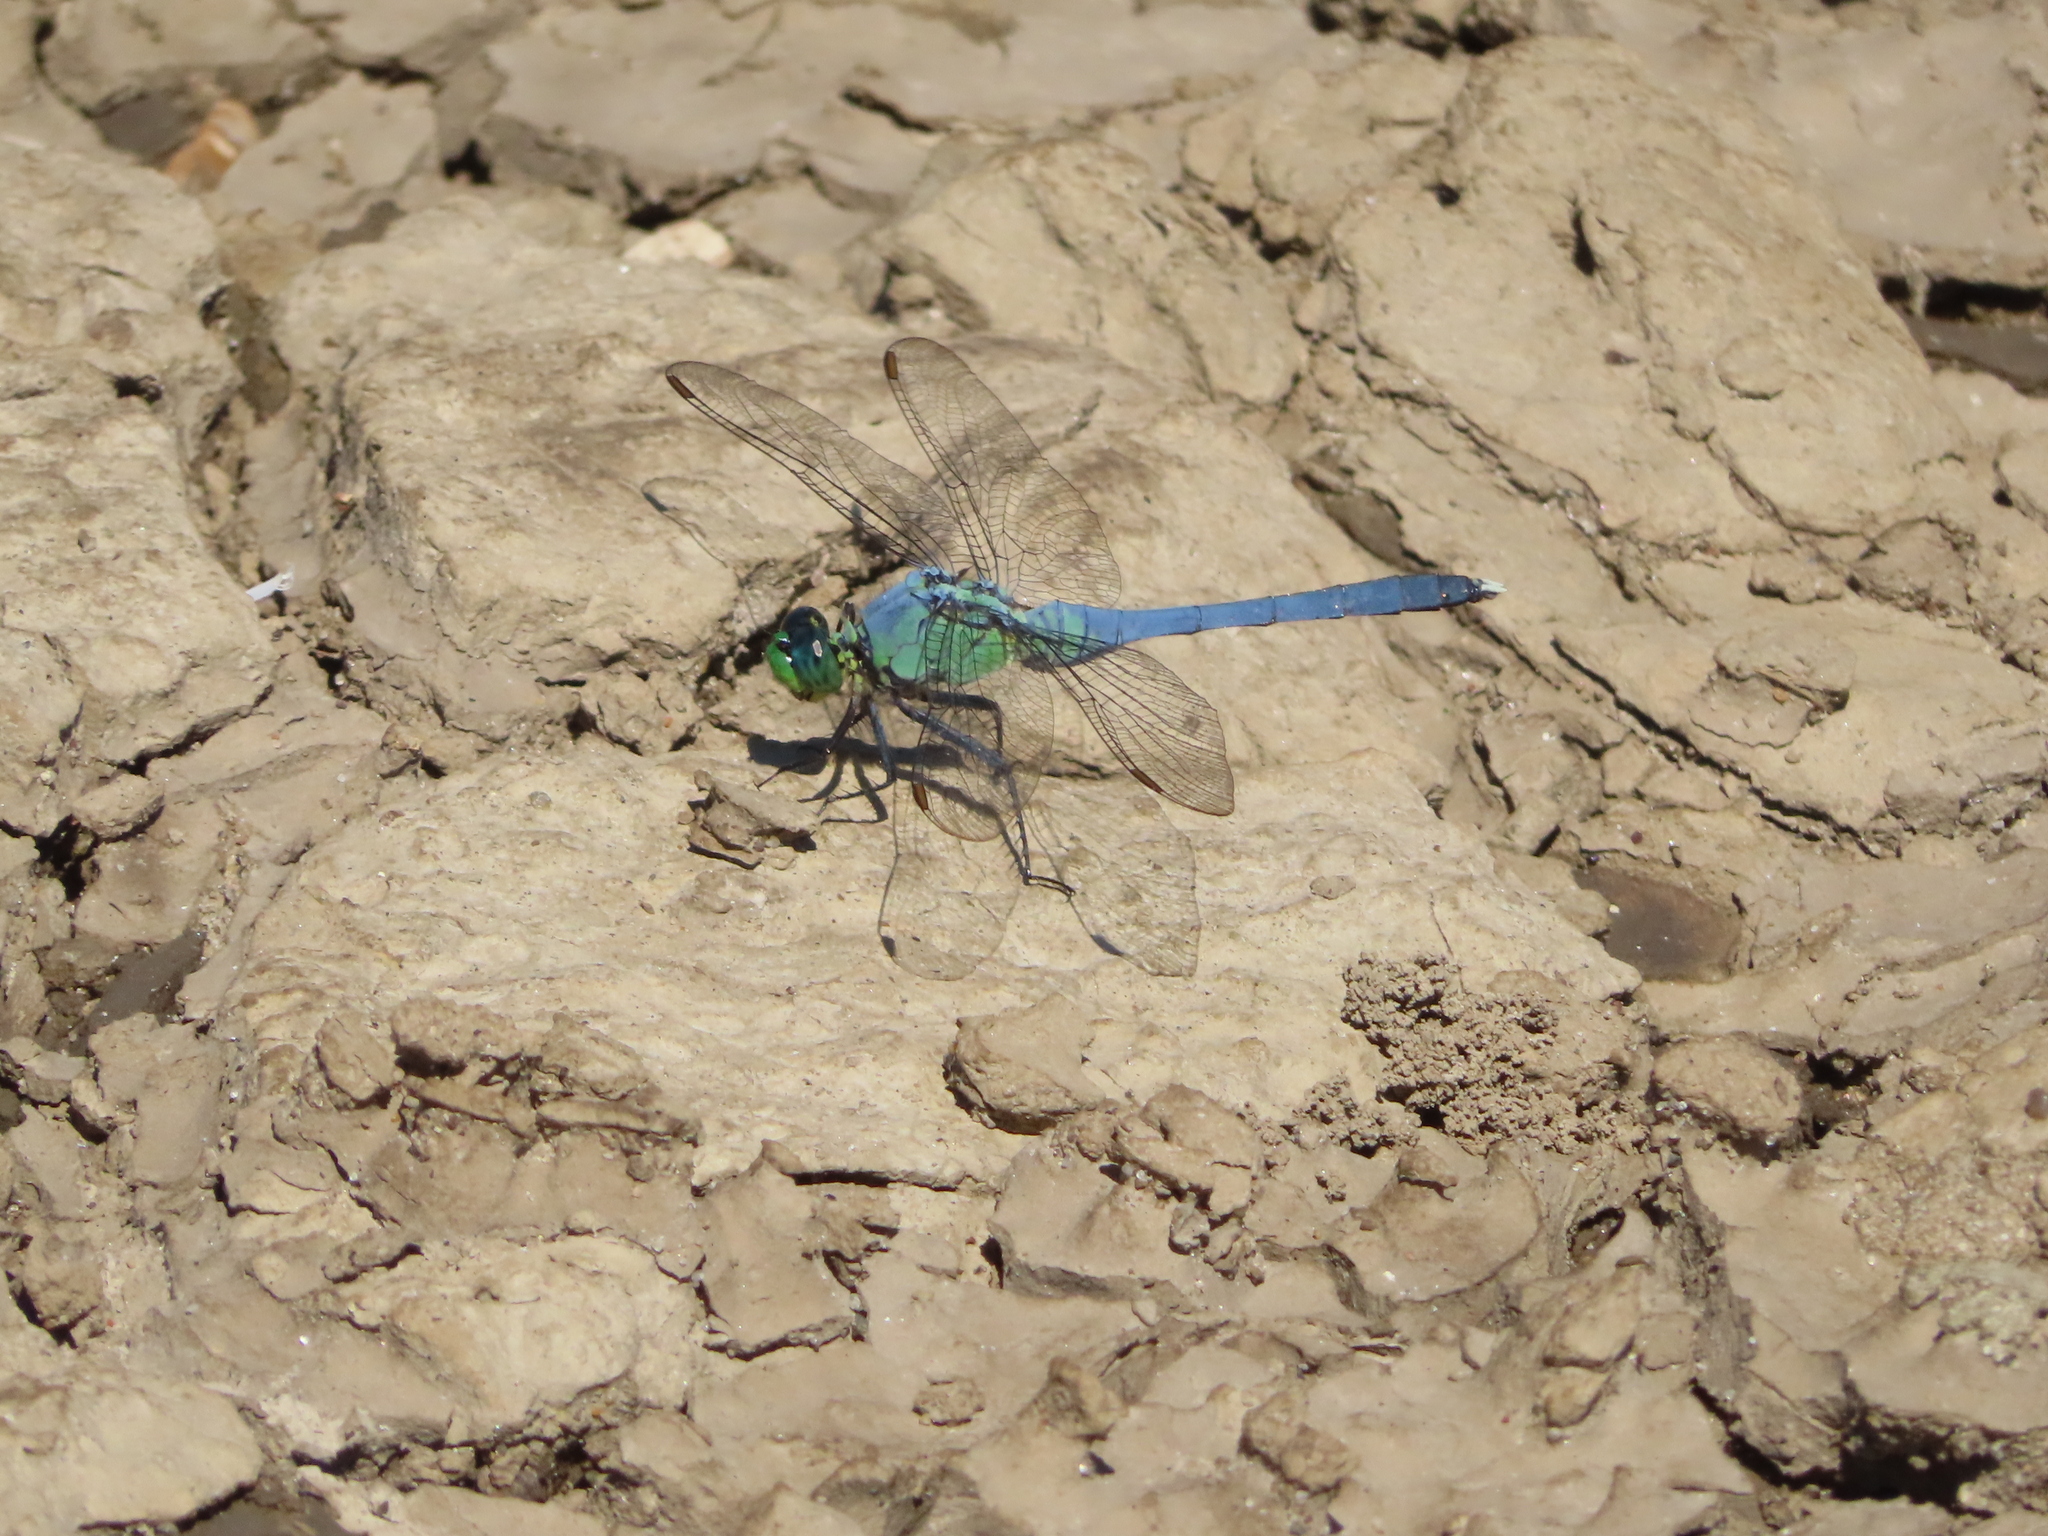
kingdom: Animalia
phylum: Arthropoda
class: Insecta
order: Odonata
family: Libellulidae
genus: Erythemis
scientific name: Erythemis simplicicollis
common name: Eastern pondhawk
